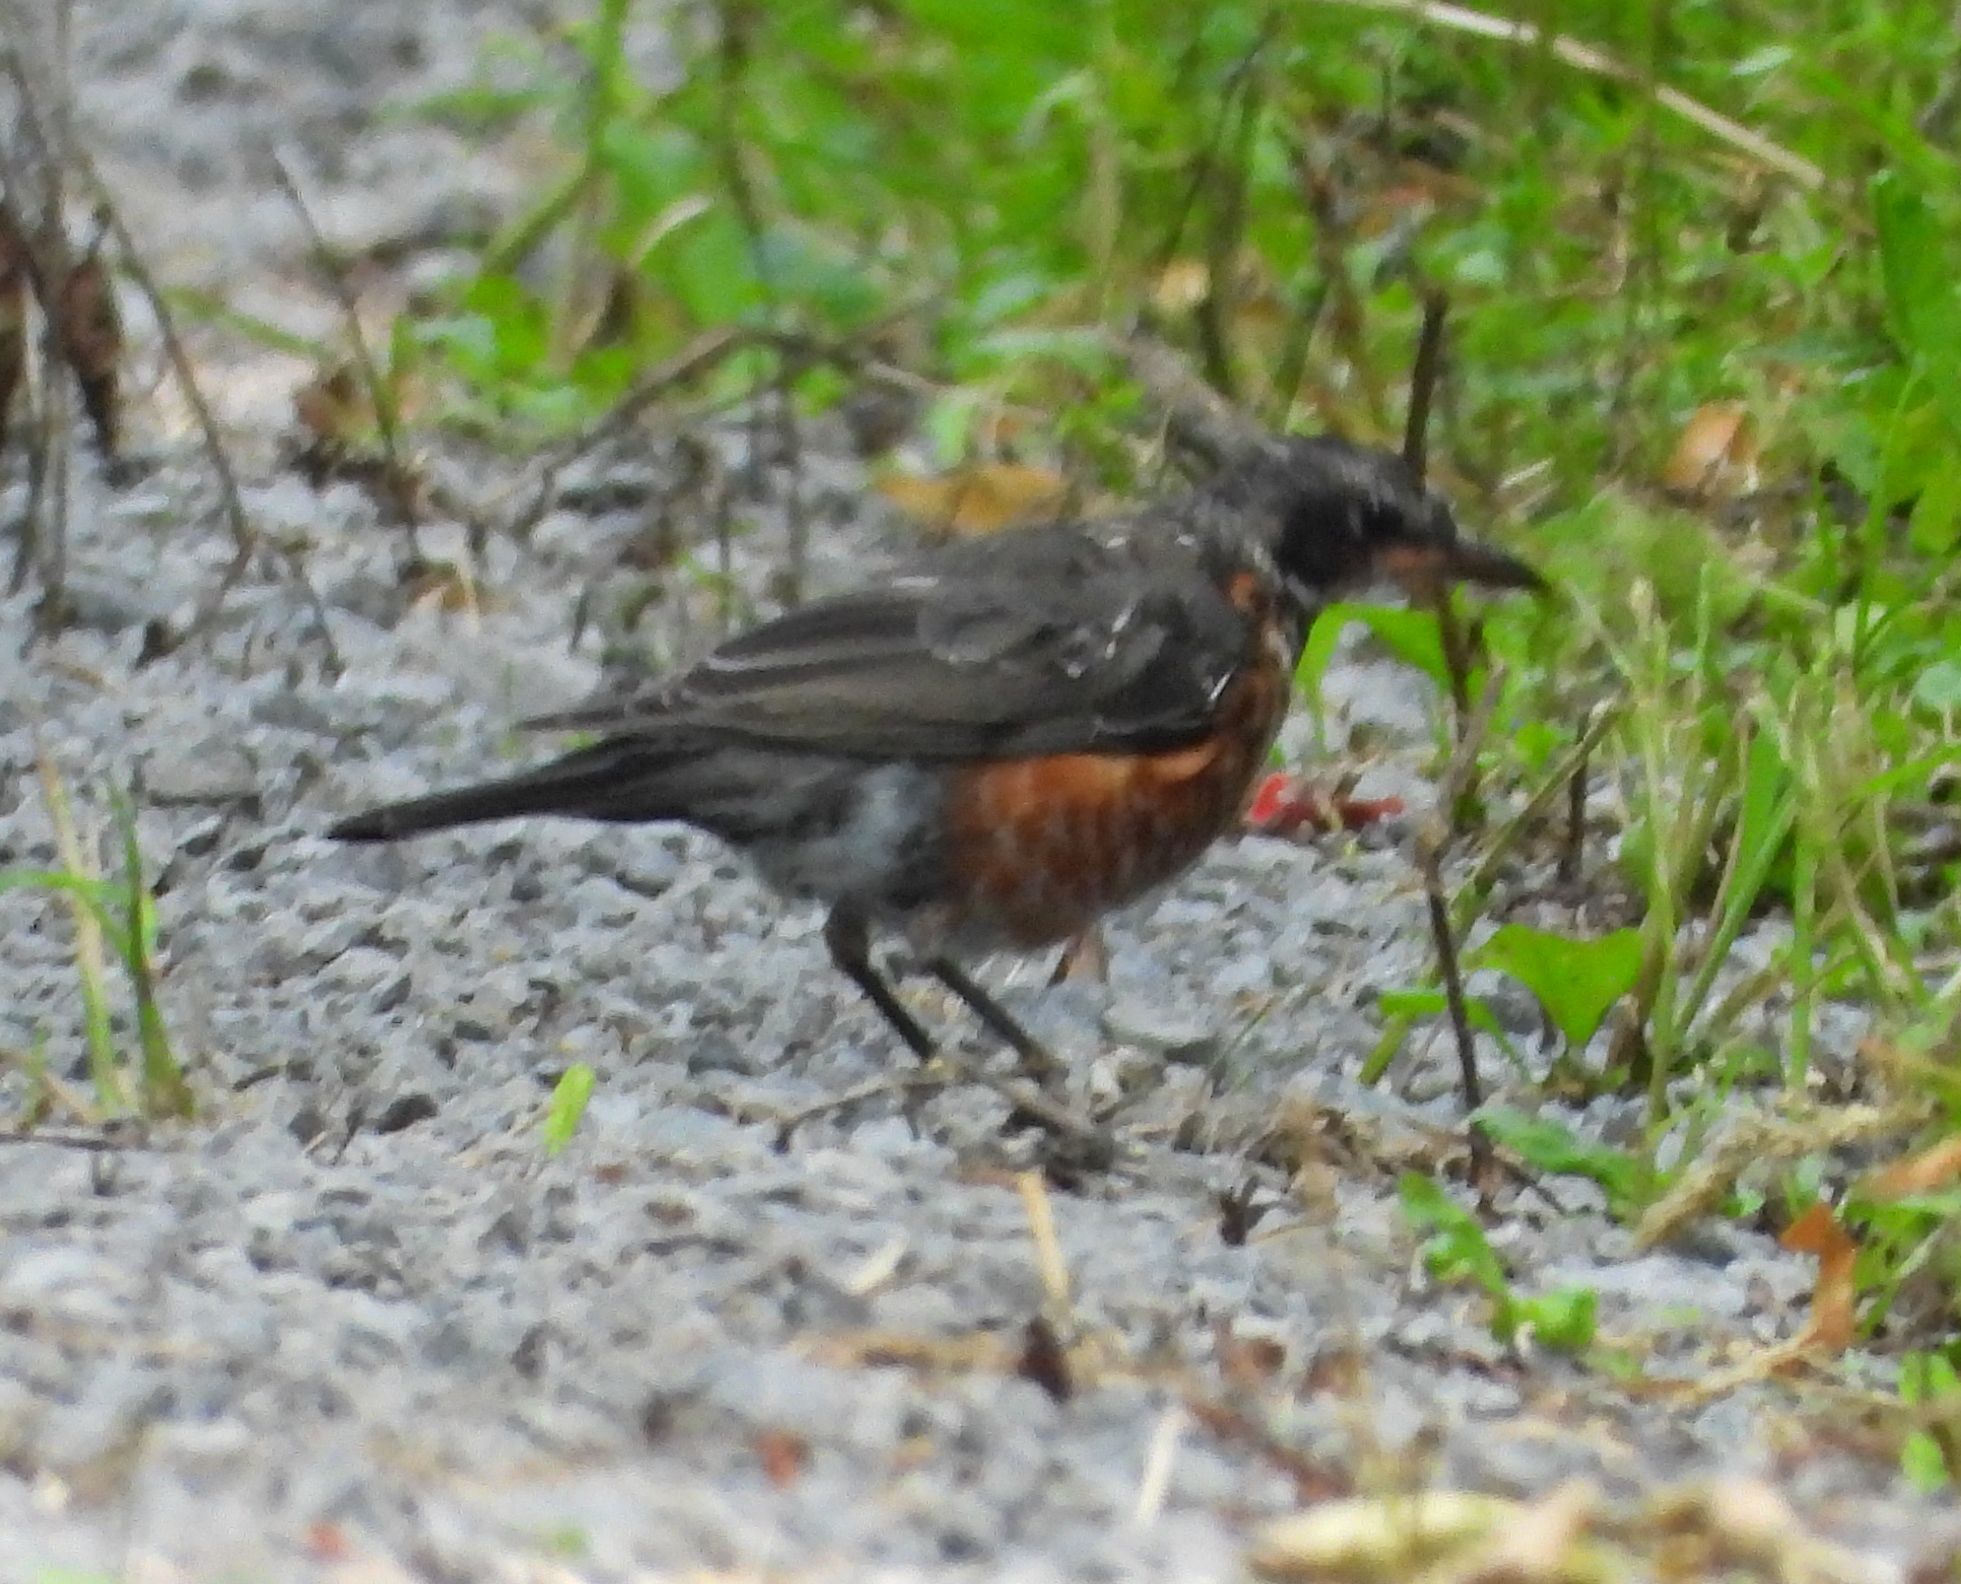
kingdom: Animalia
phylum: Chordata
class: Aves
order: Passeriformes
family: Turdidae
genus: Turdus
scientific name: Turdus migratorius
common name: American robin
